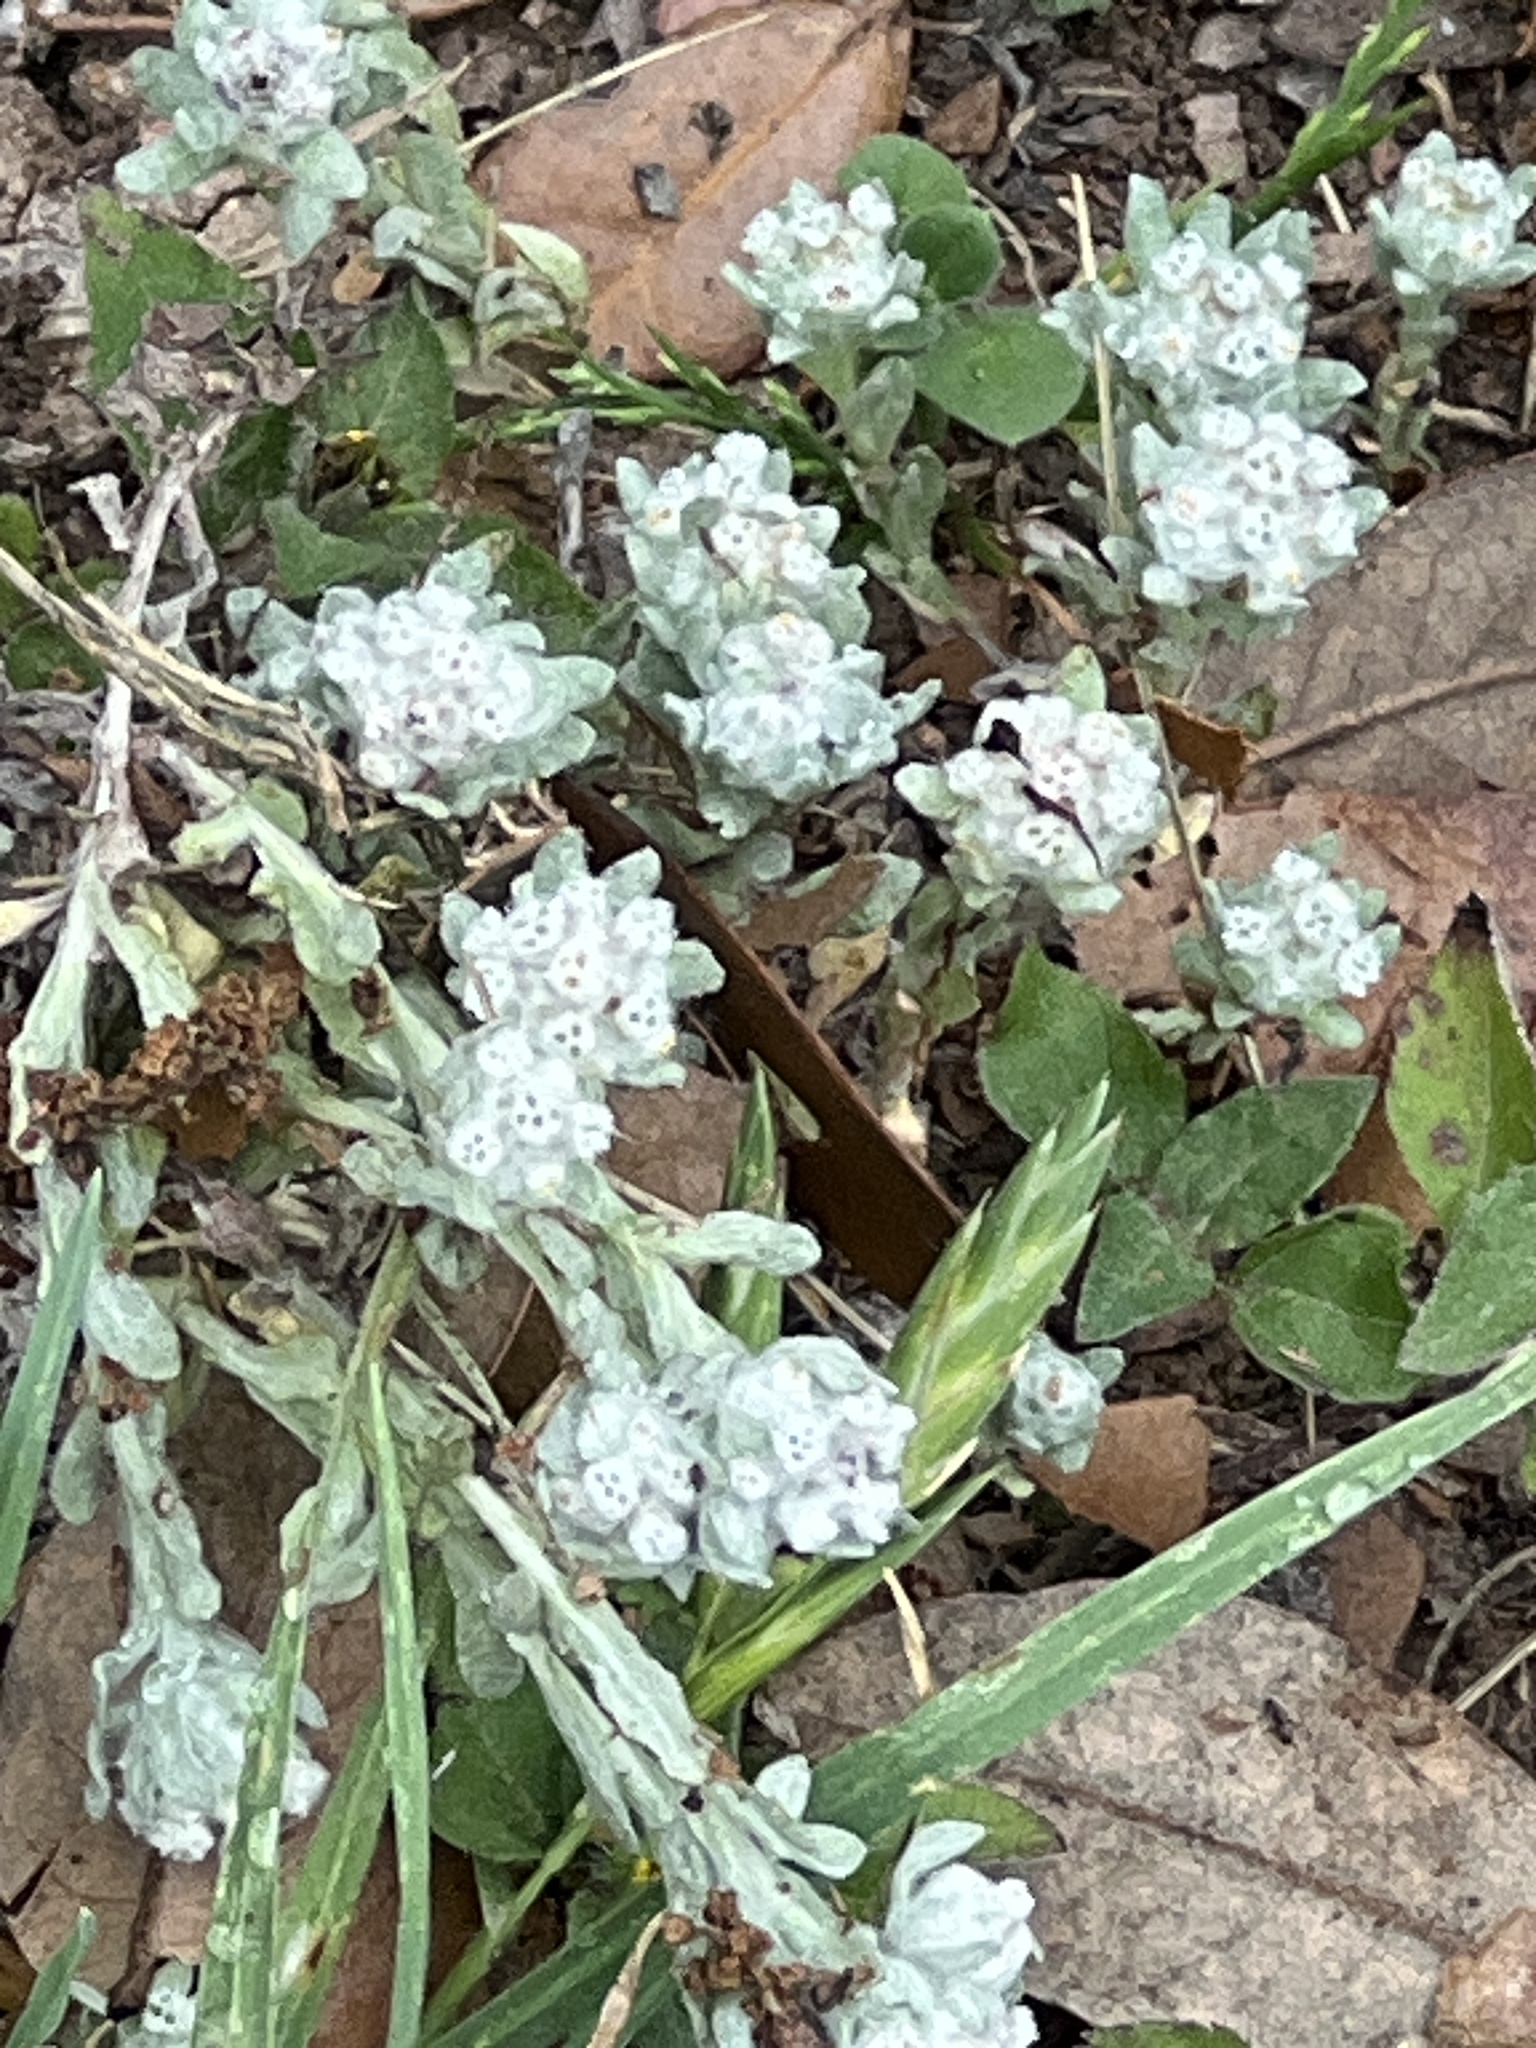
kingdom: Plantae
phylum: Tracheophyta
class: Magnoliopsida
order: Asterales
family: Asteraceae
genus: Diaperia
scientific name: Diaperia verna
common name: Many-stem rabbit-tobacco
